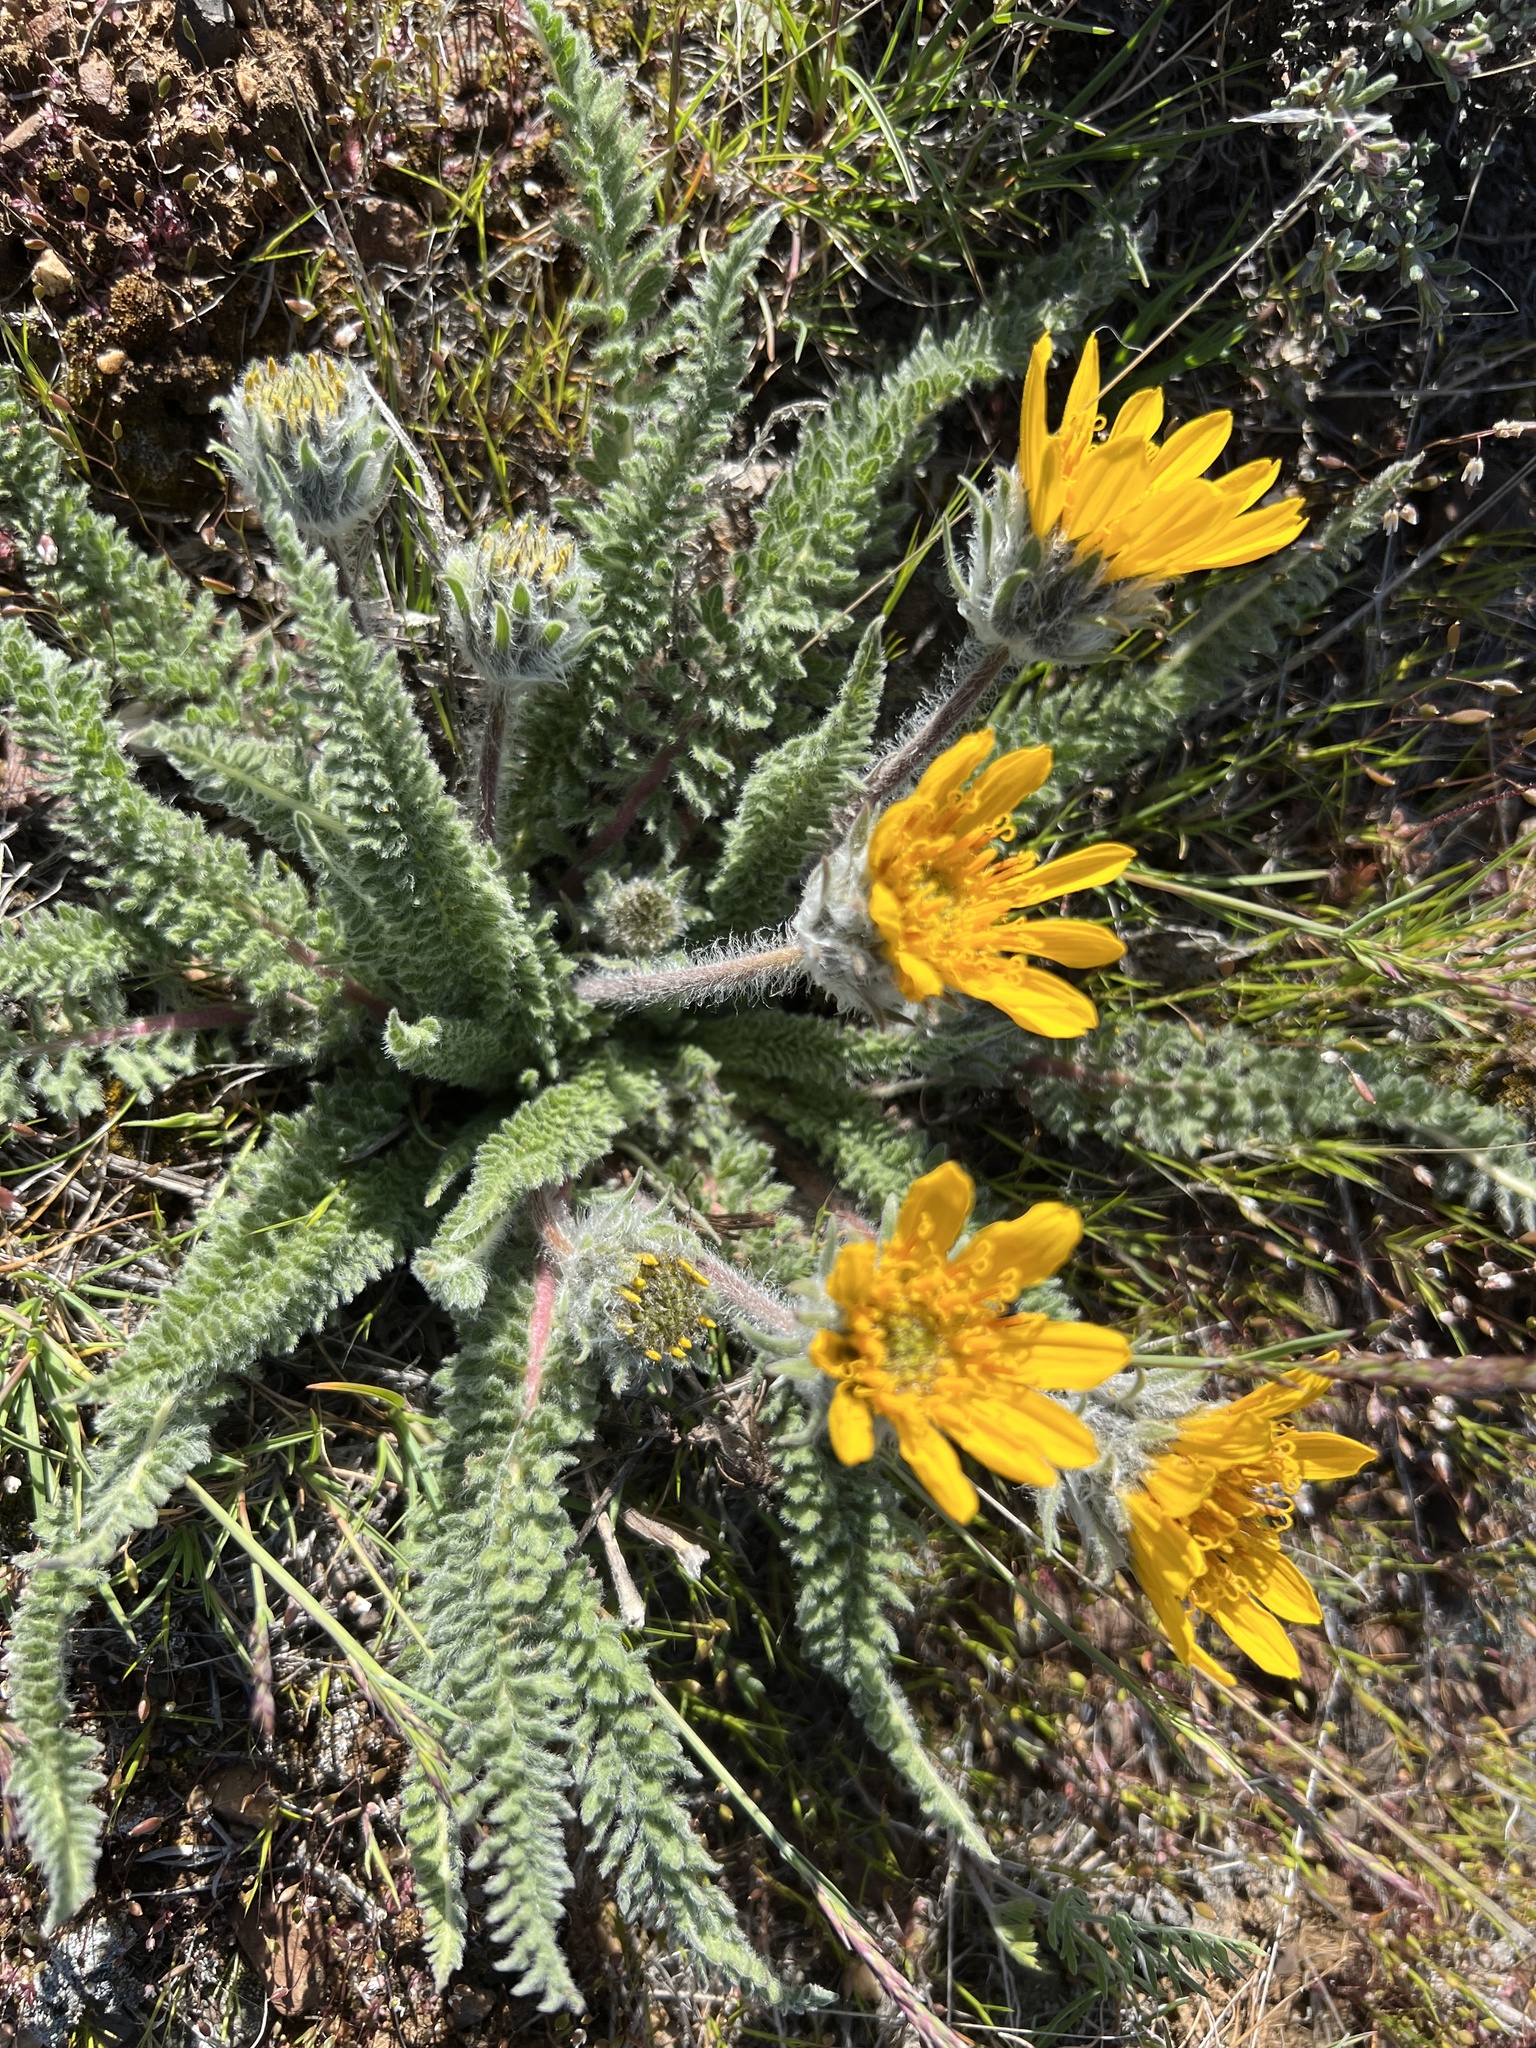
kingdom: Plantae
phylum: Tracheophyta
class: Magnoliopsida
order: Asterales
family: Asteraceae
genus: Balsamorhiza
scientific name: Balsamorhiza hookeri
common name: Hooker's balsamroot
